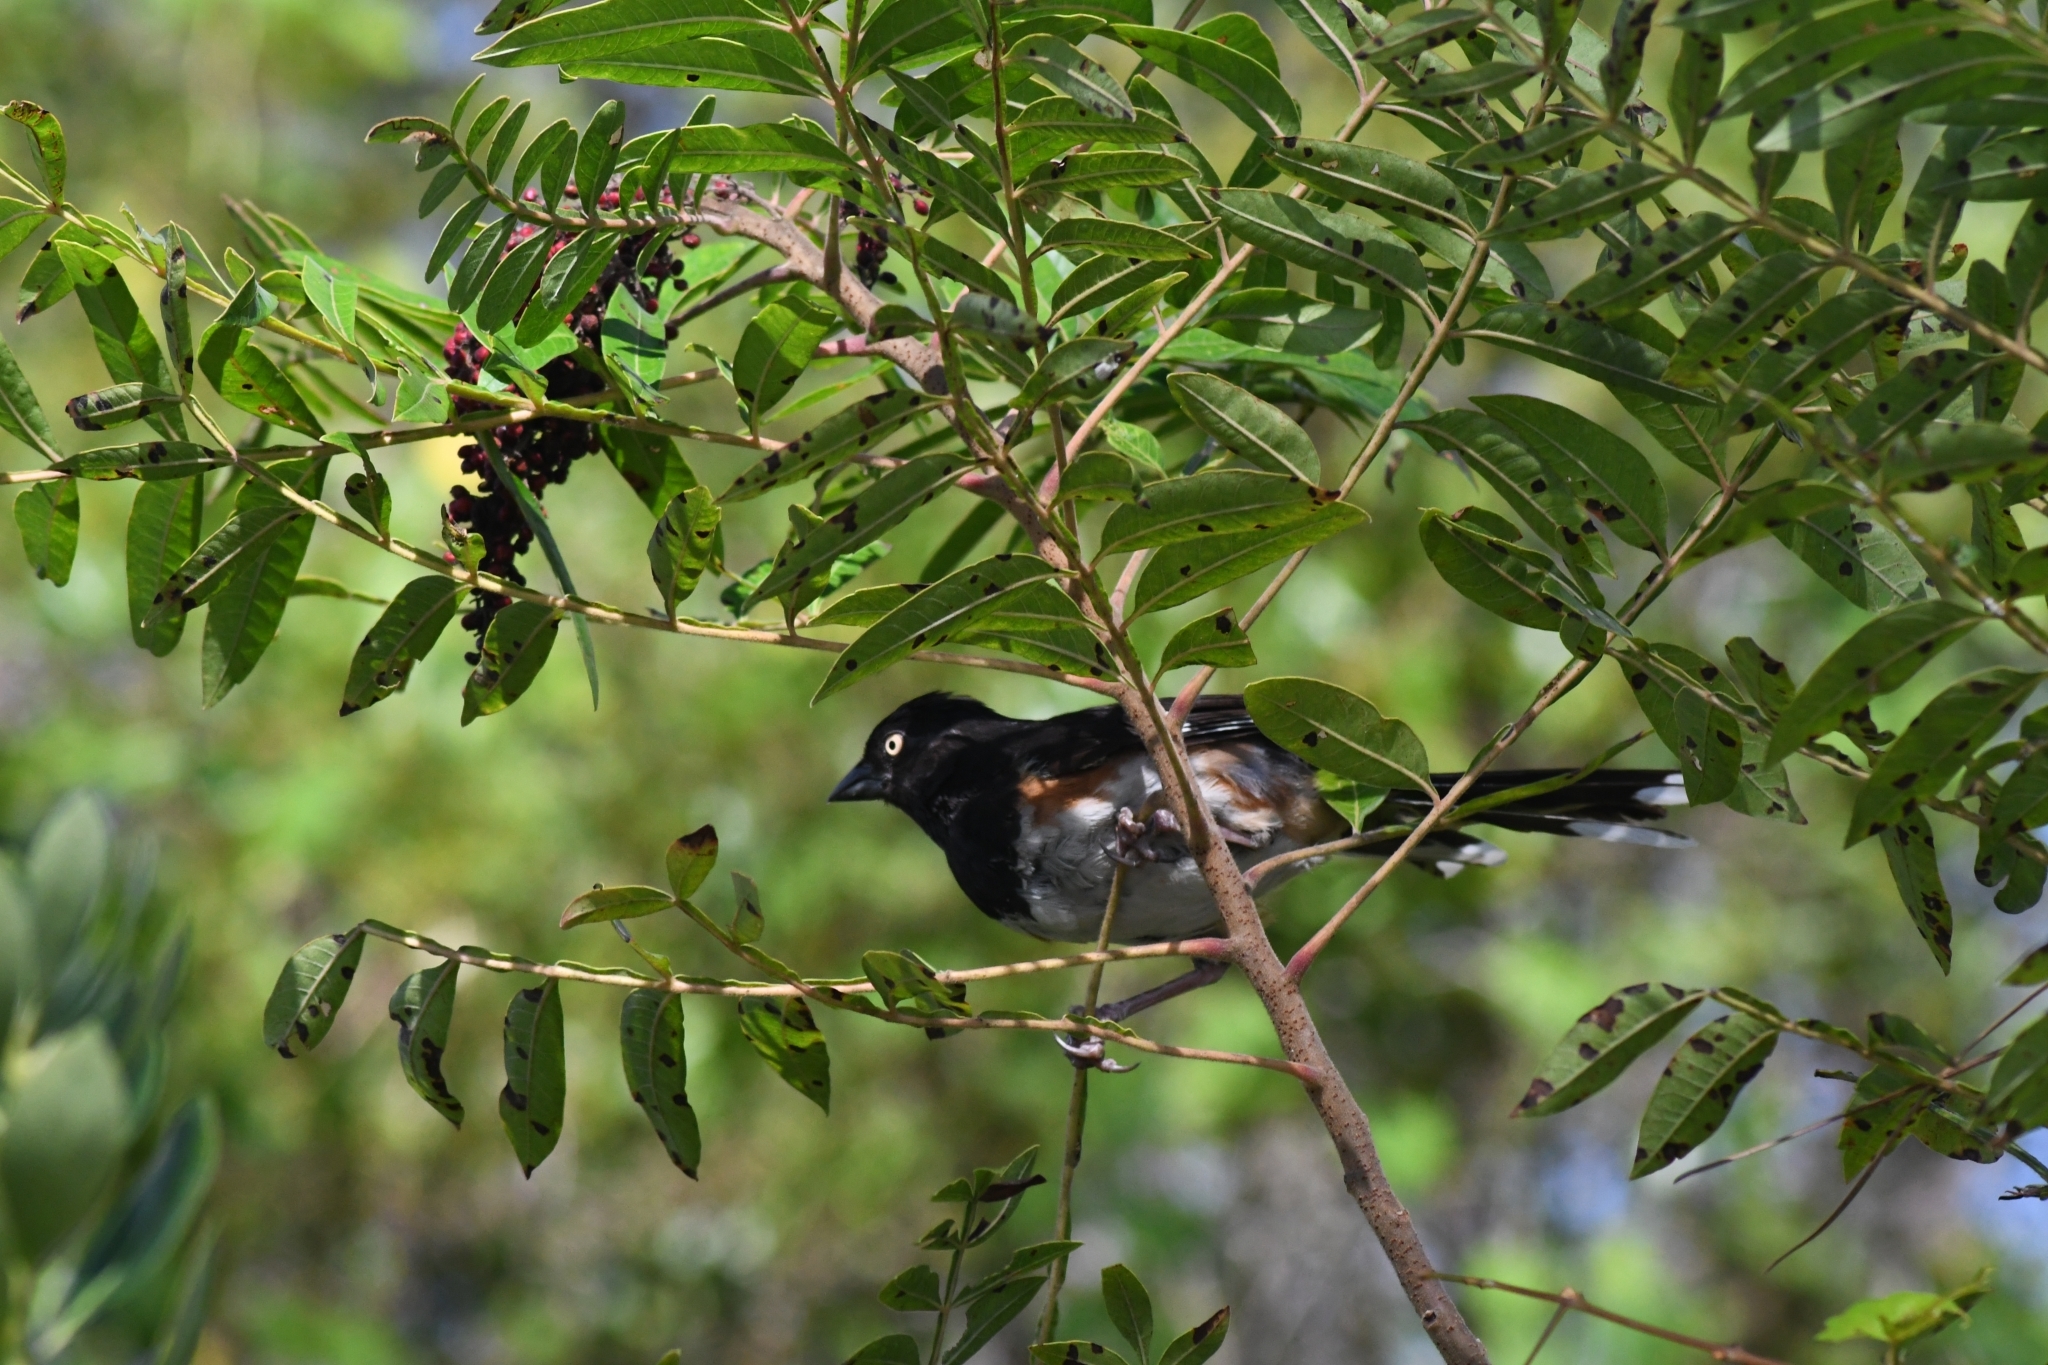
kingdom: Animalia
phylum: Chordata
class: Aves
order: Passeriformes
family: Passerellidae
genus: Pipilo
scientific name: Pipilo erythrophthalmus
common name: Eastern towhee
